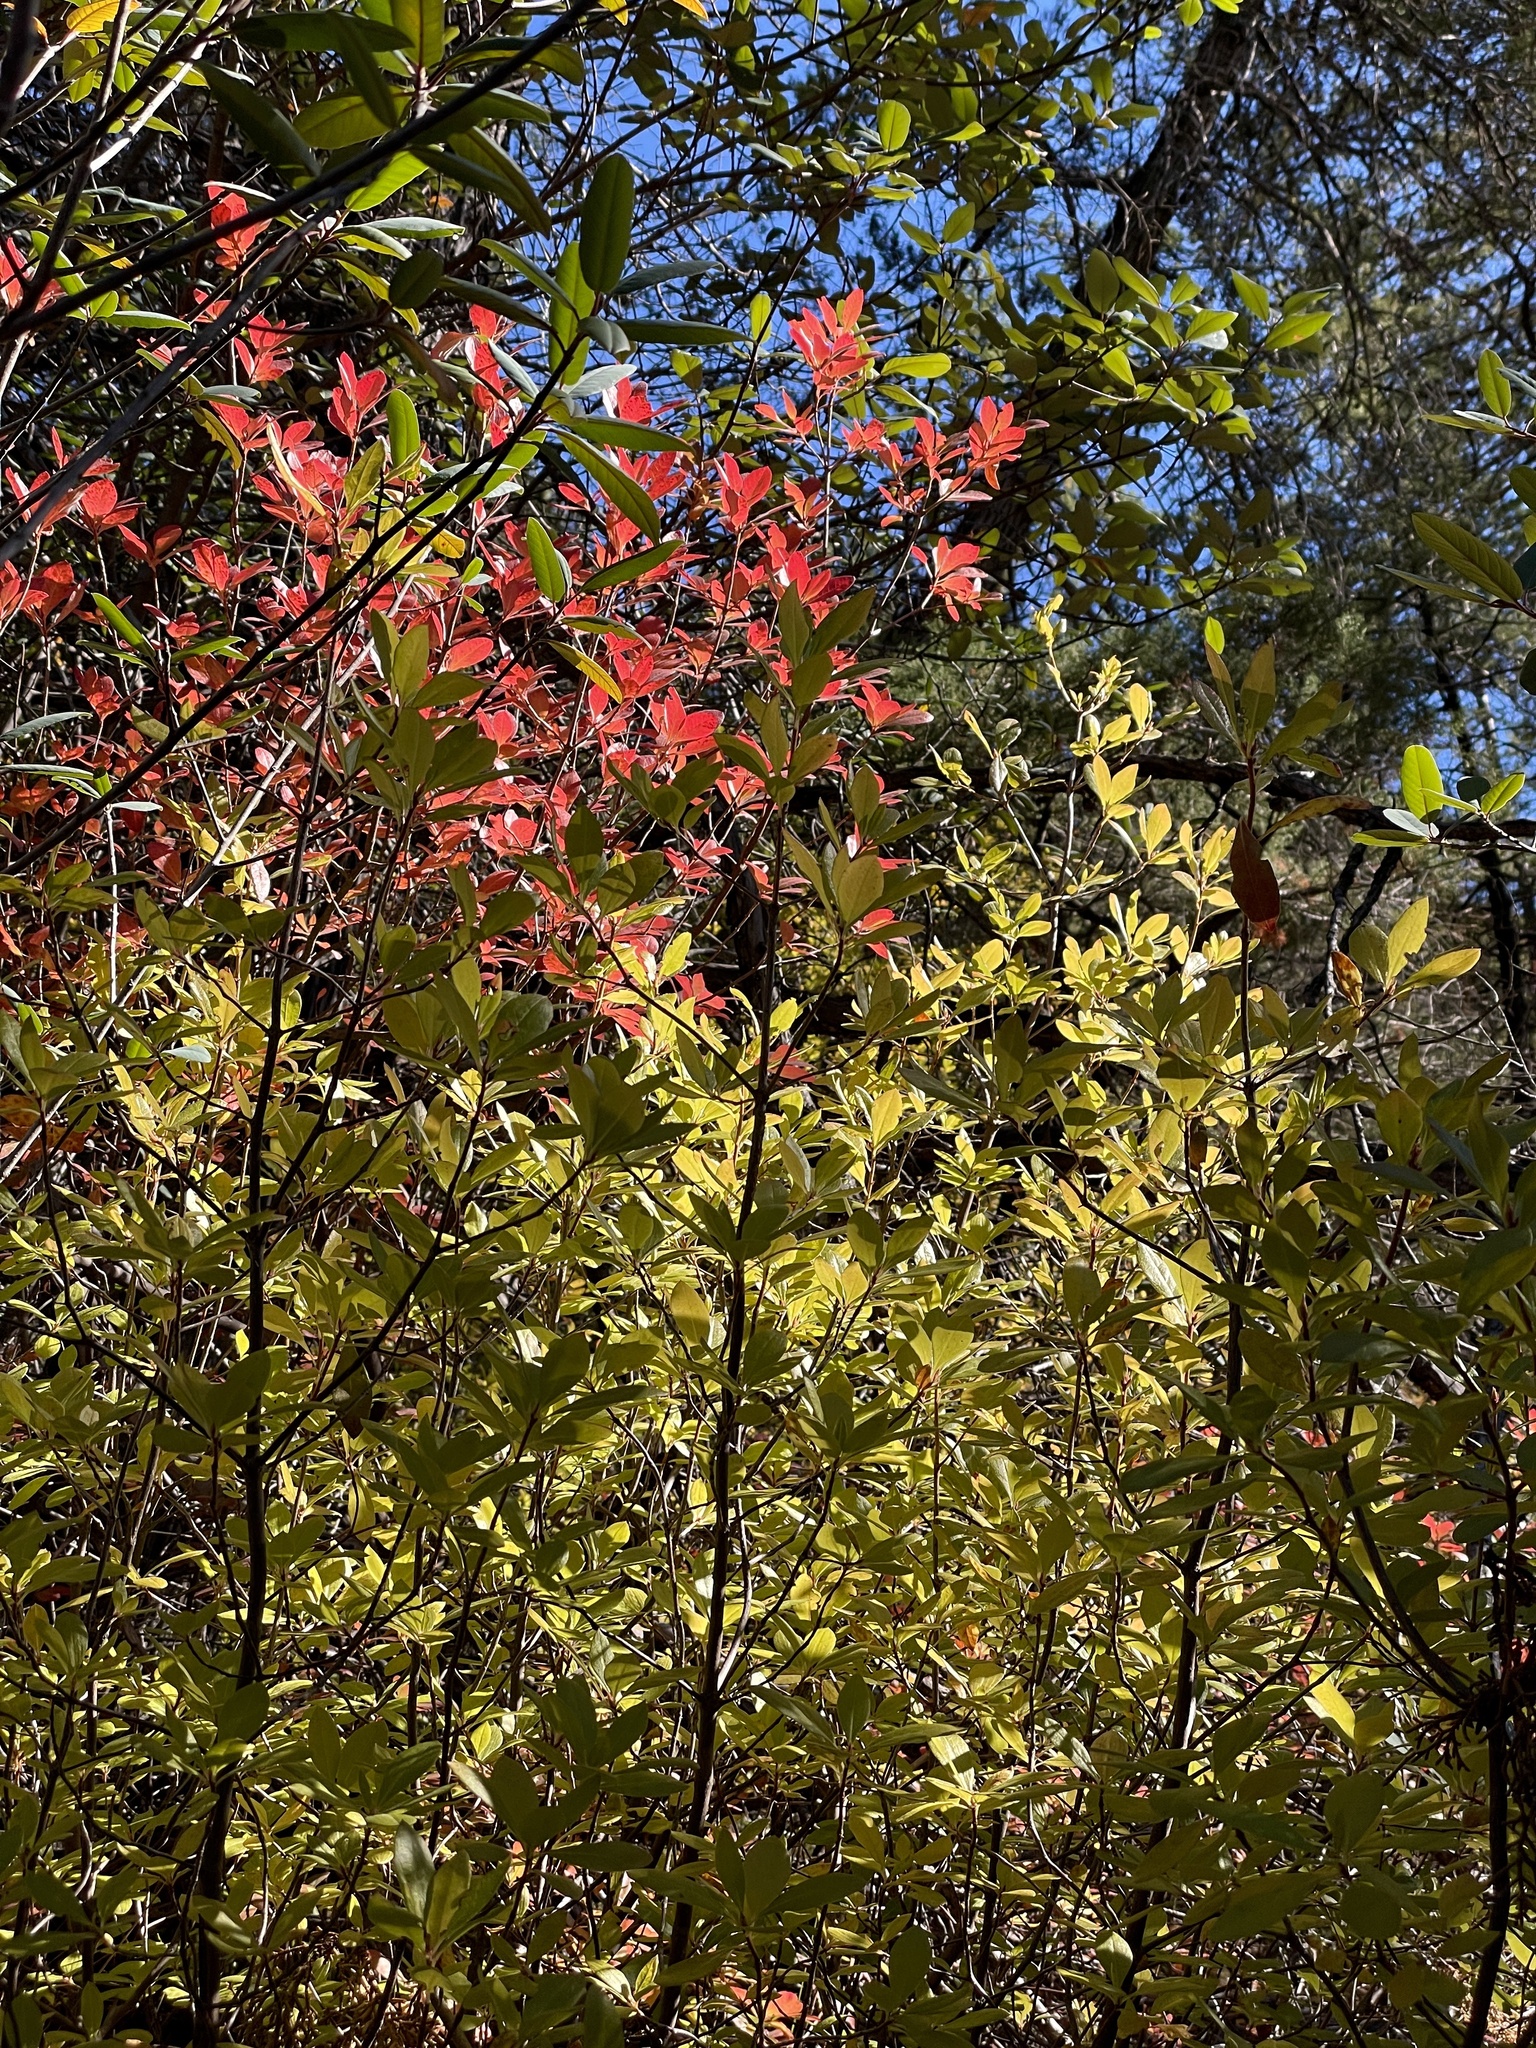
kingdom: Plantae
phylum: Tracheophyta
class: Magnoliopsida
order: Ericales
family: Ericaceae
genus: Rhododendron
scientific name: Rhododendron occidentale
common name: Western azalea
